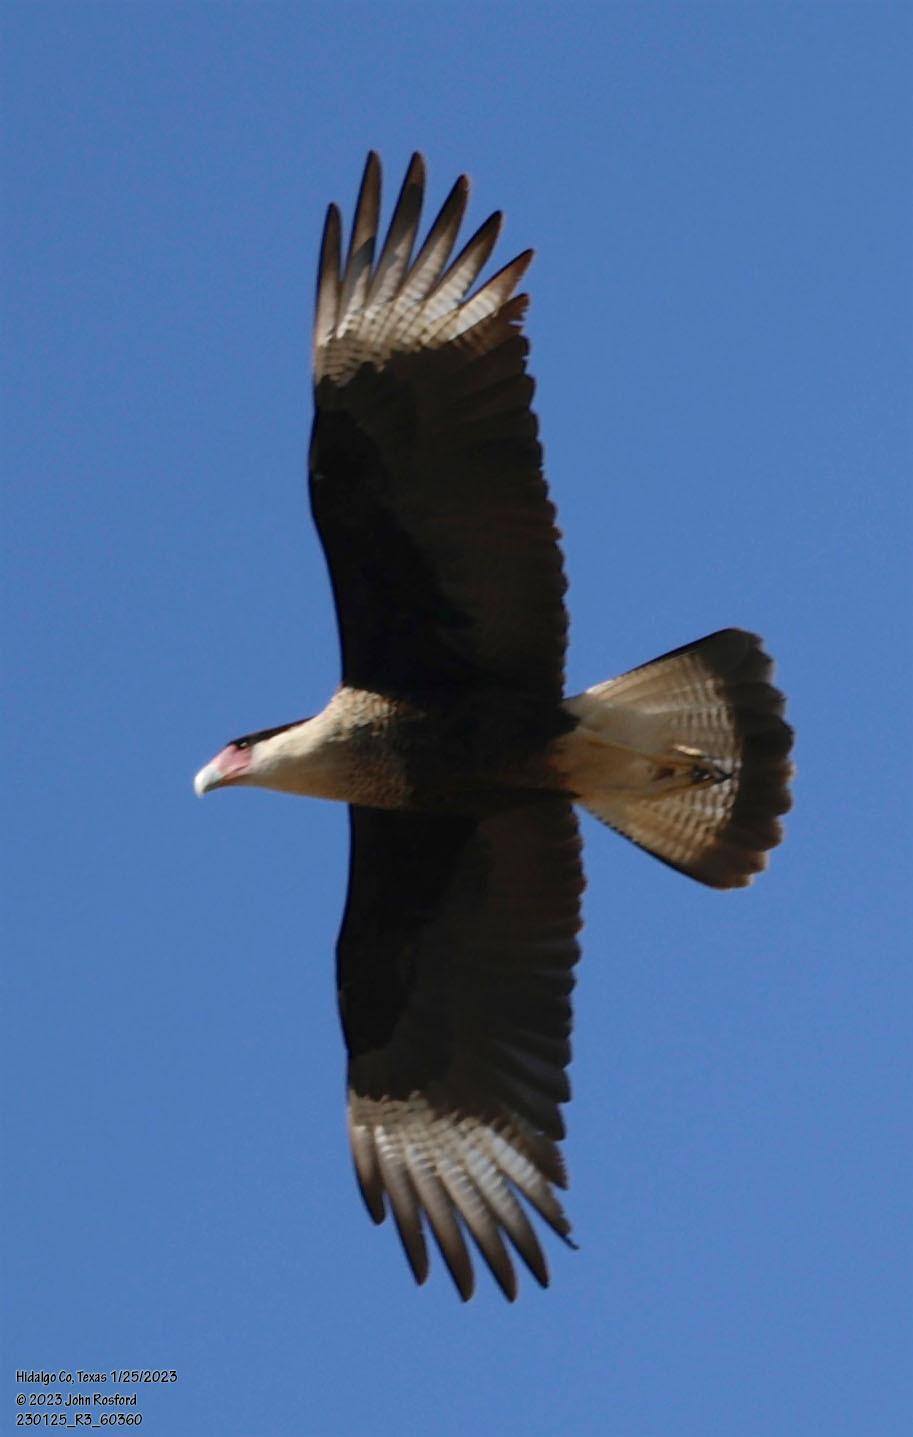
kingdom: Animalia
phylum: Chordata
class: Aves
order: Falconiformes
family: Falconidae
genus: Caracara
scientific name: Caracara plancus
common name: Southern caracara
